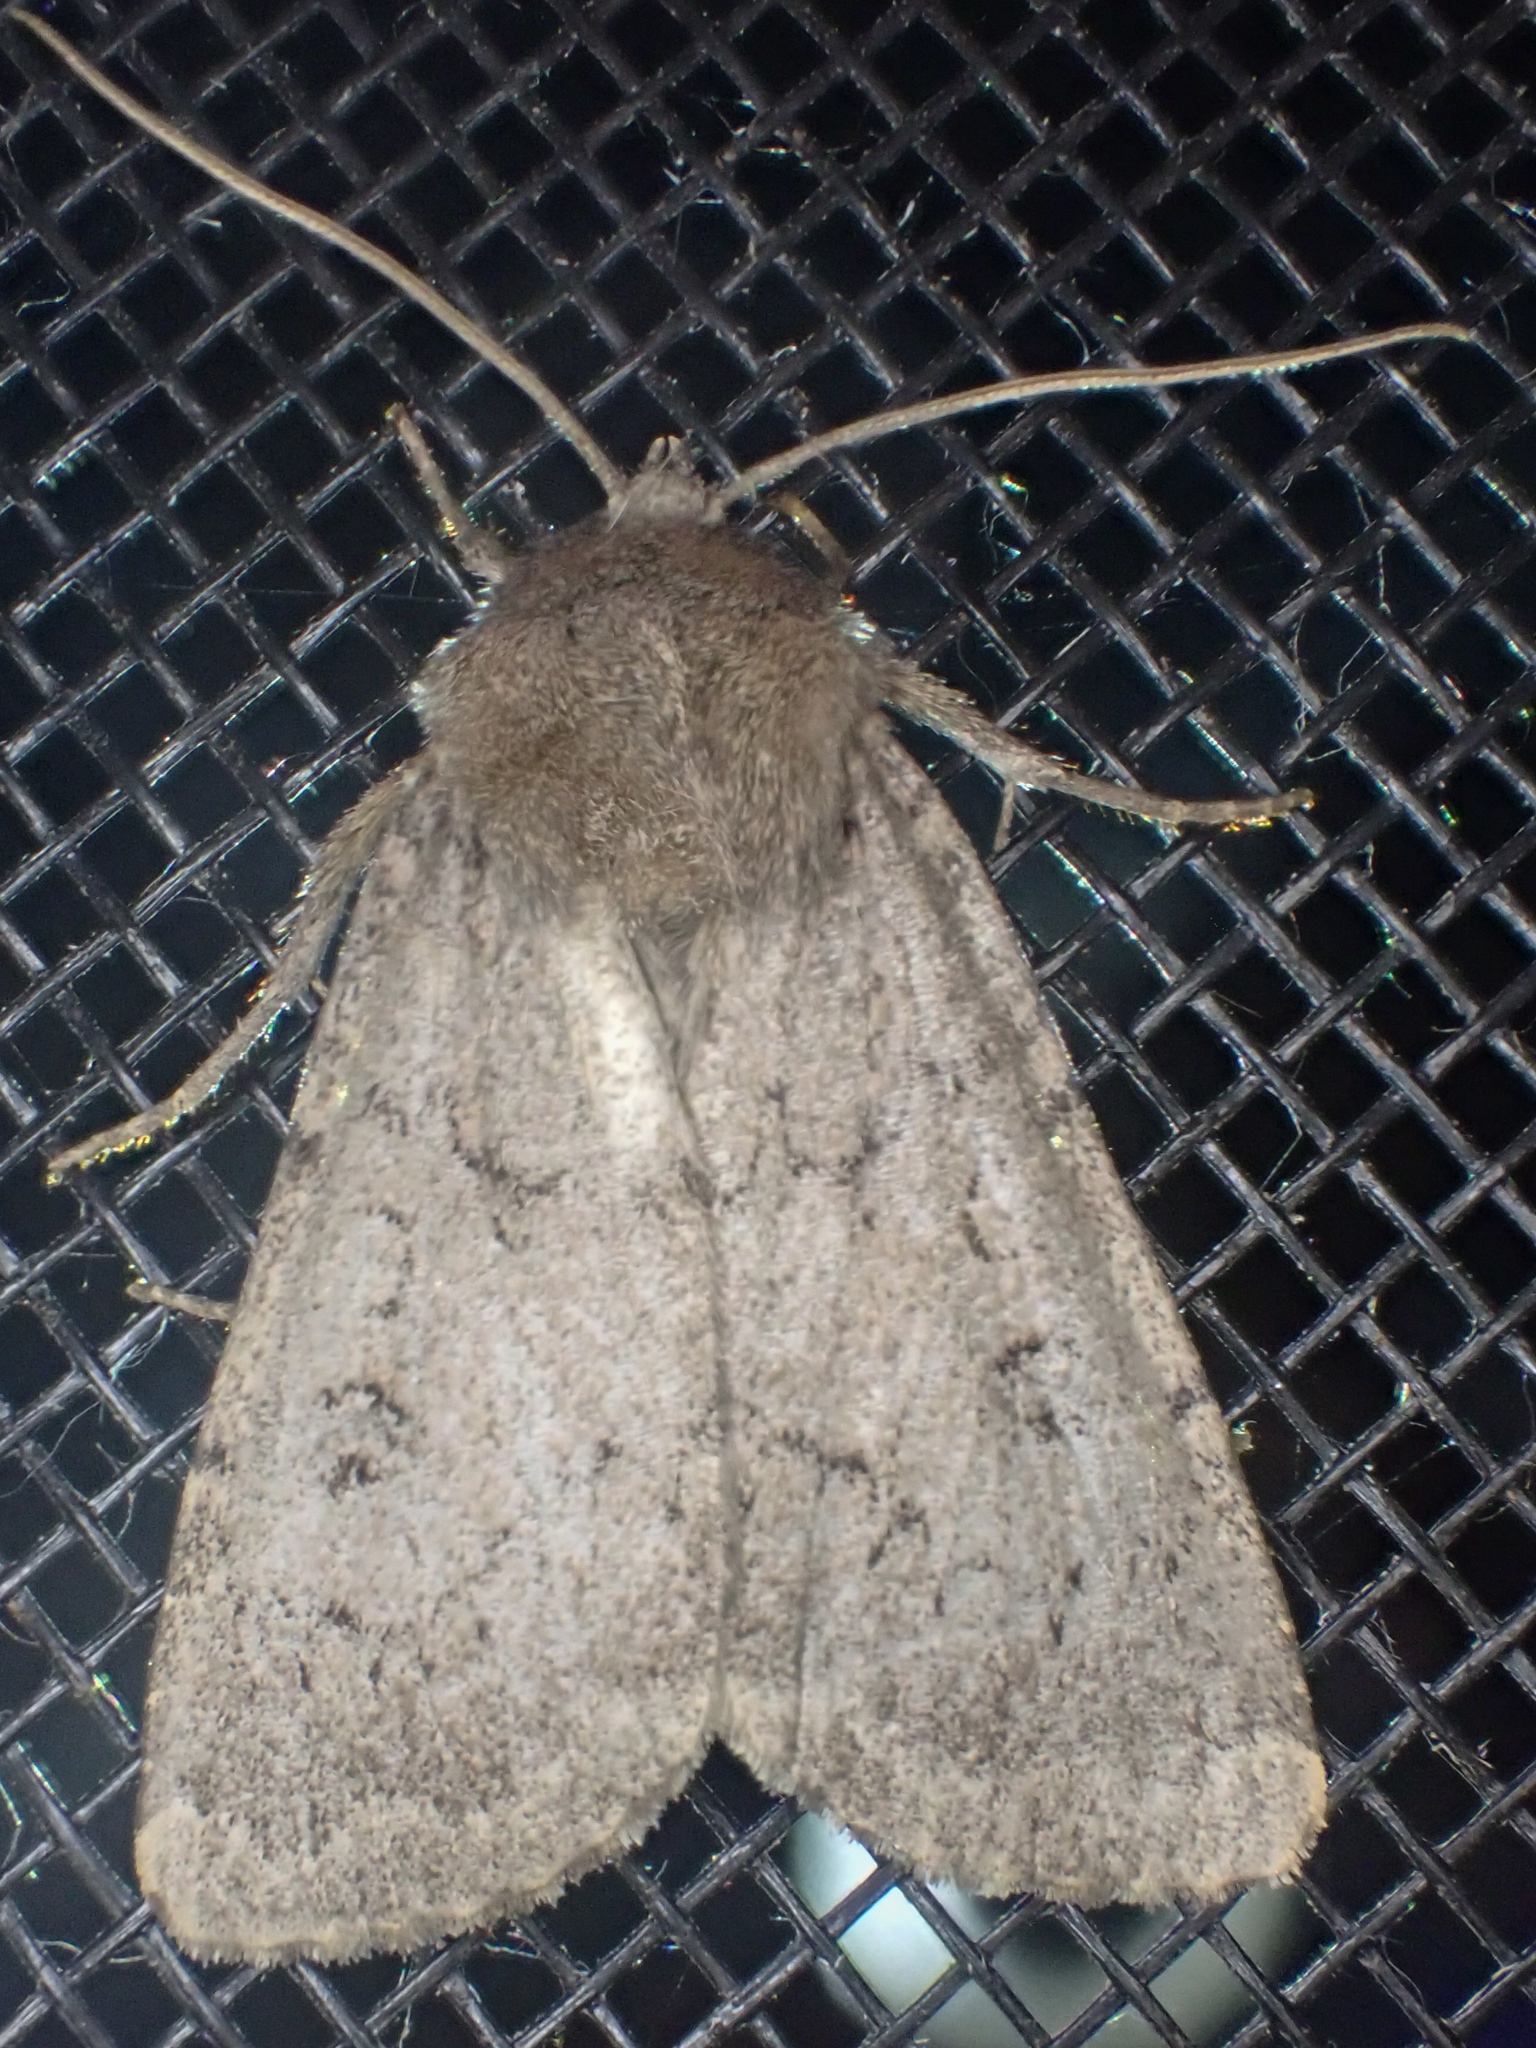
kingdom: Animalia
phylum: Arthropoda
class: Insecta
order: Lepidoptera
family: Noctuidae
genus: Graphiphora
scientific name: Graphiphora augur
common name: Double dart
